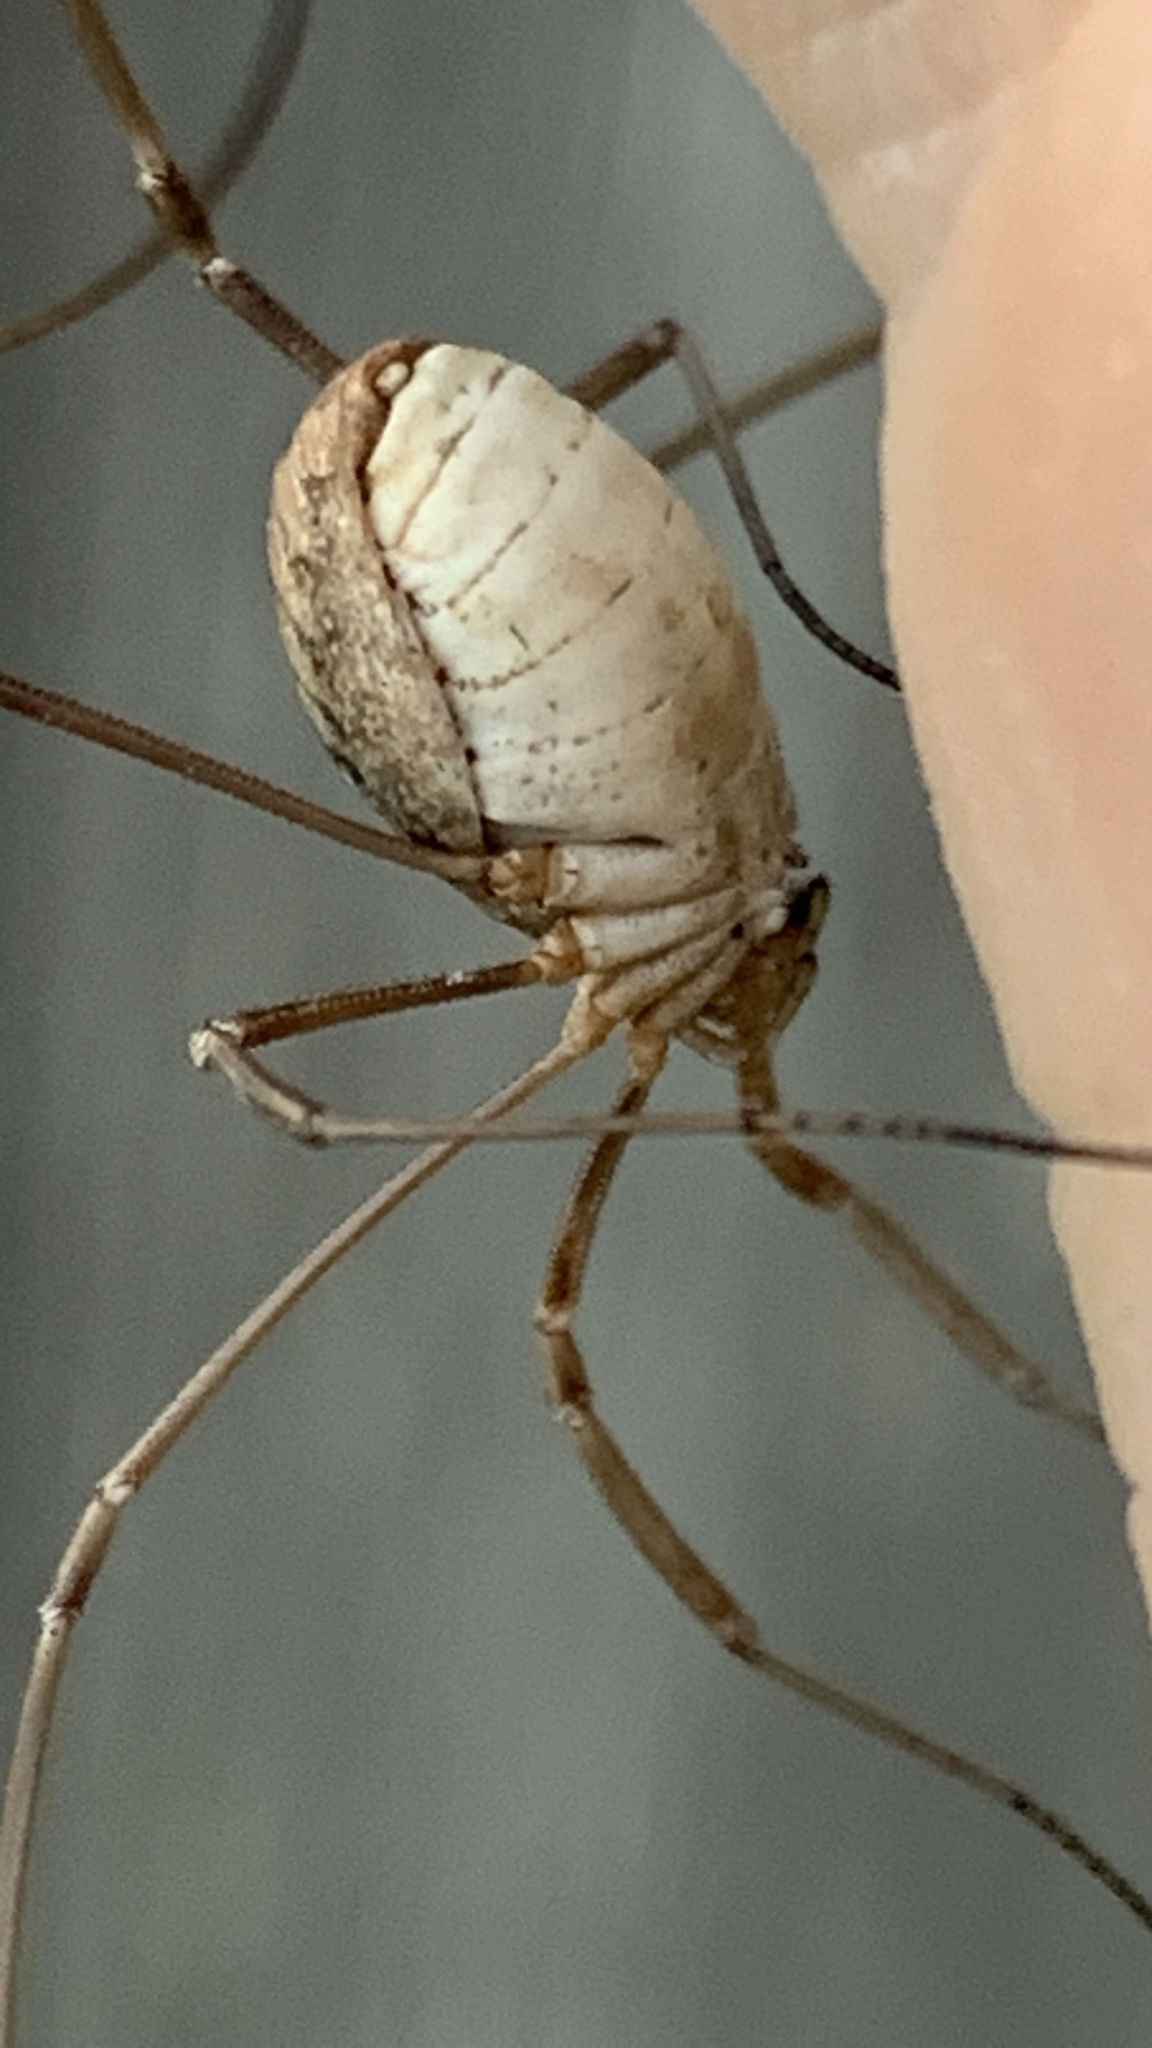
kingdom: Animalia
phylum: Arthropoda
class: Arachnida
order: Opiliones
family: Phalangiidae
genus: Phalangium
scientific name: Phalangium opilio
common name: Daddy longleg
